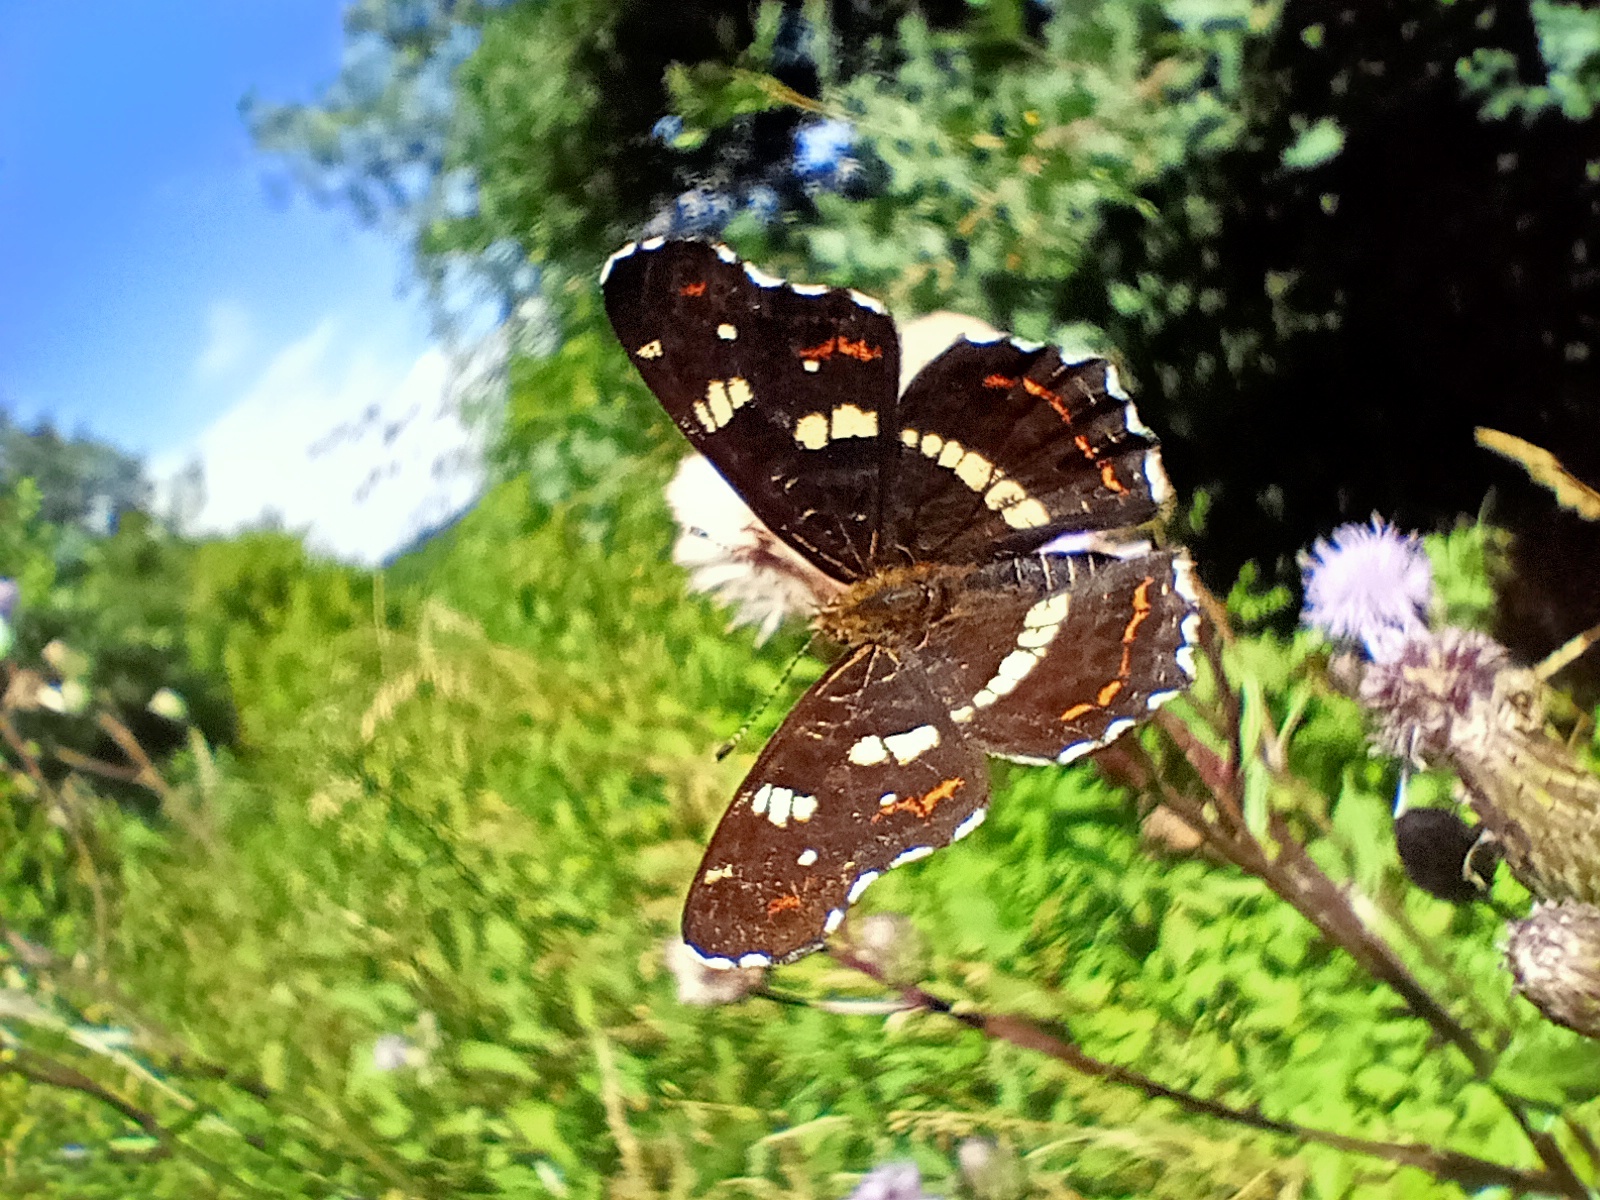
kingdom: Animalia
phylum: Arthropoda
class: Insecta
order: Lepidoptera
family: Nymphalidae
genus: Araschnia
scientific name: Araschnia levana
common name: Map butterfly
